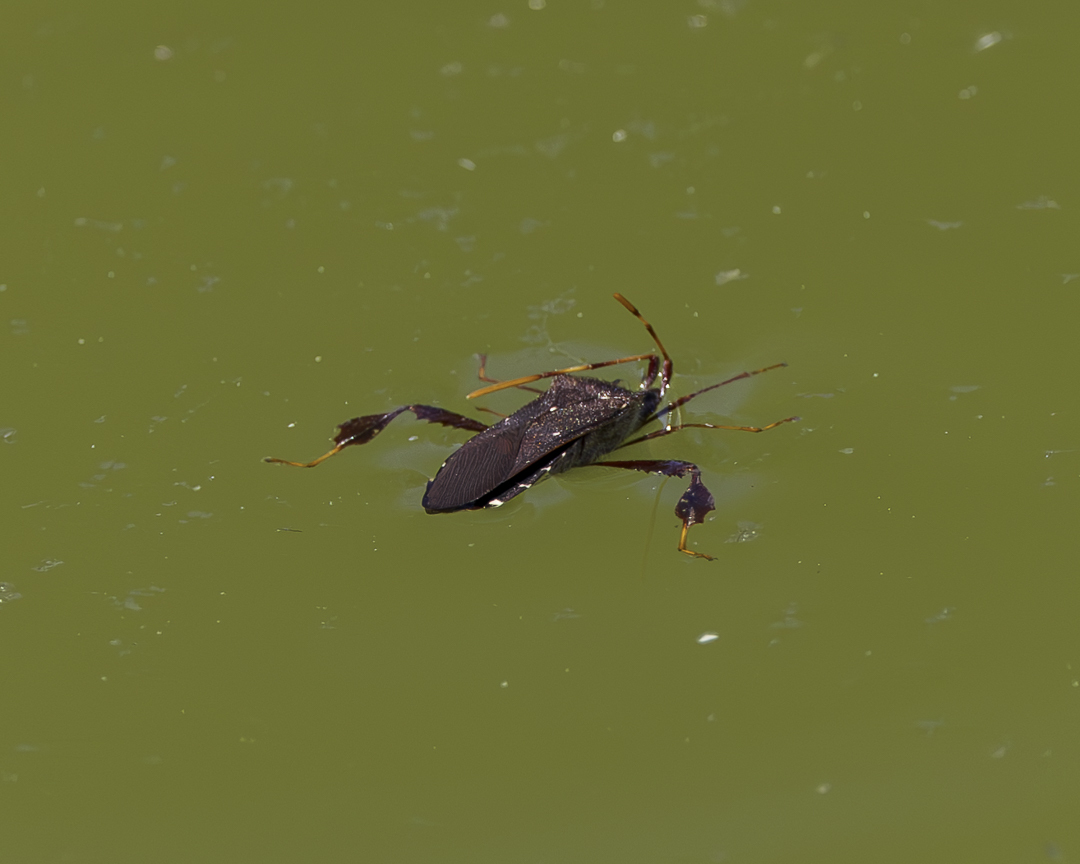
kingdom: Animalia
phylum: Arthropoda
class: Insecta
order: Hemiptera
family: Coreidae
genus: Leptoglossus
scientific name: Leptoglossus oppositus
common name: Northern leaf-footed bug
